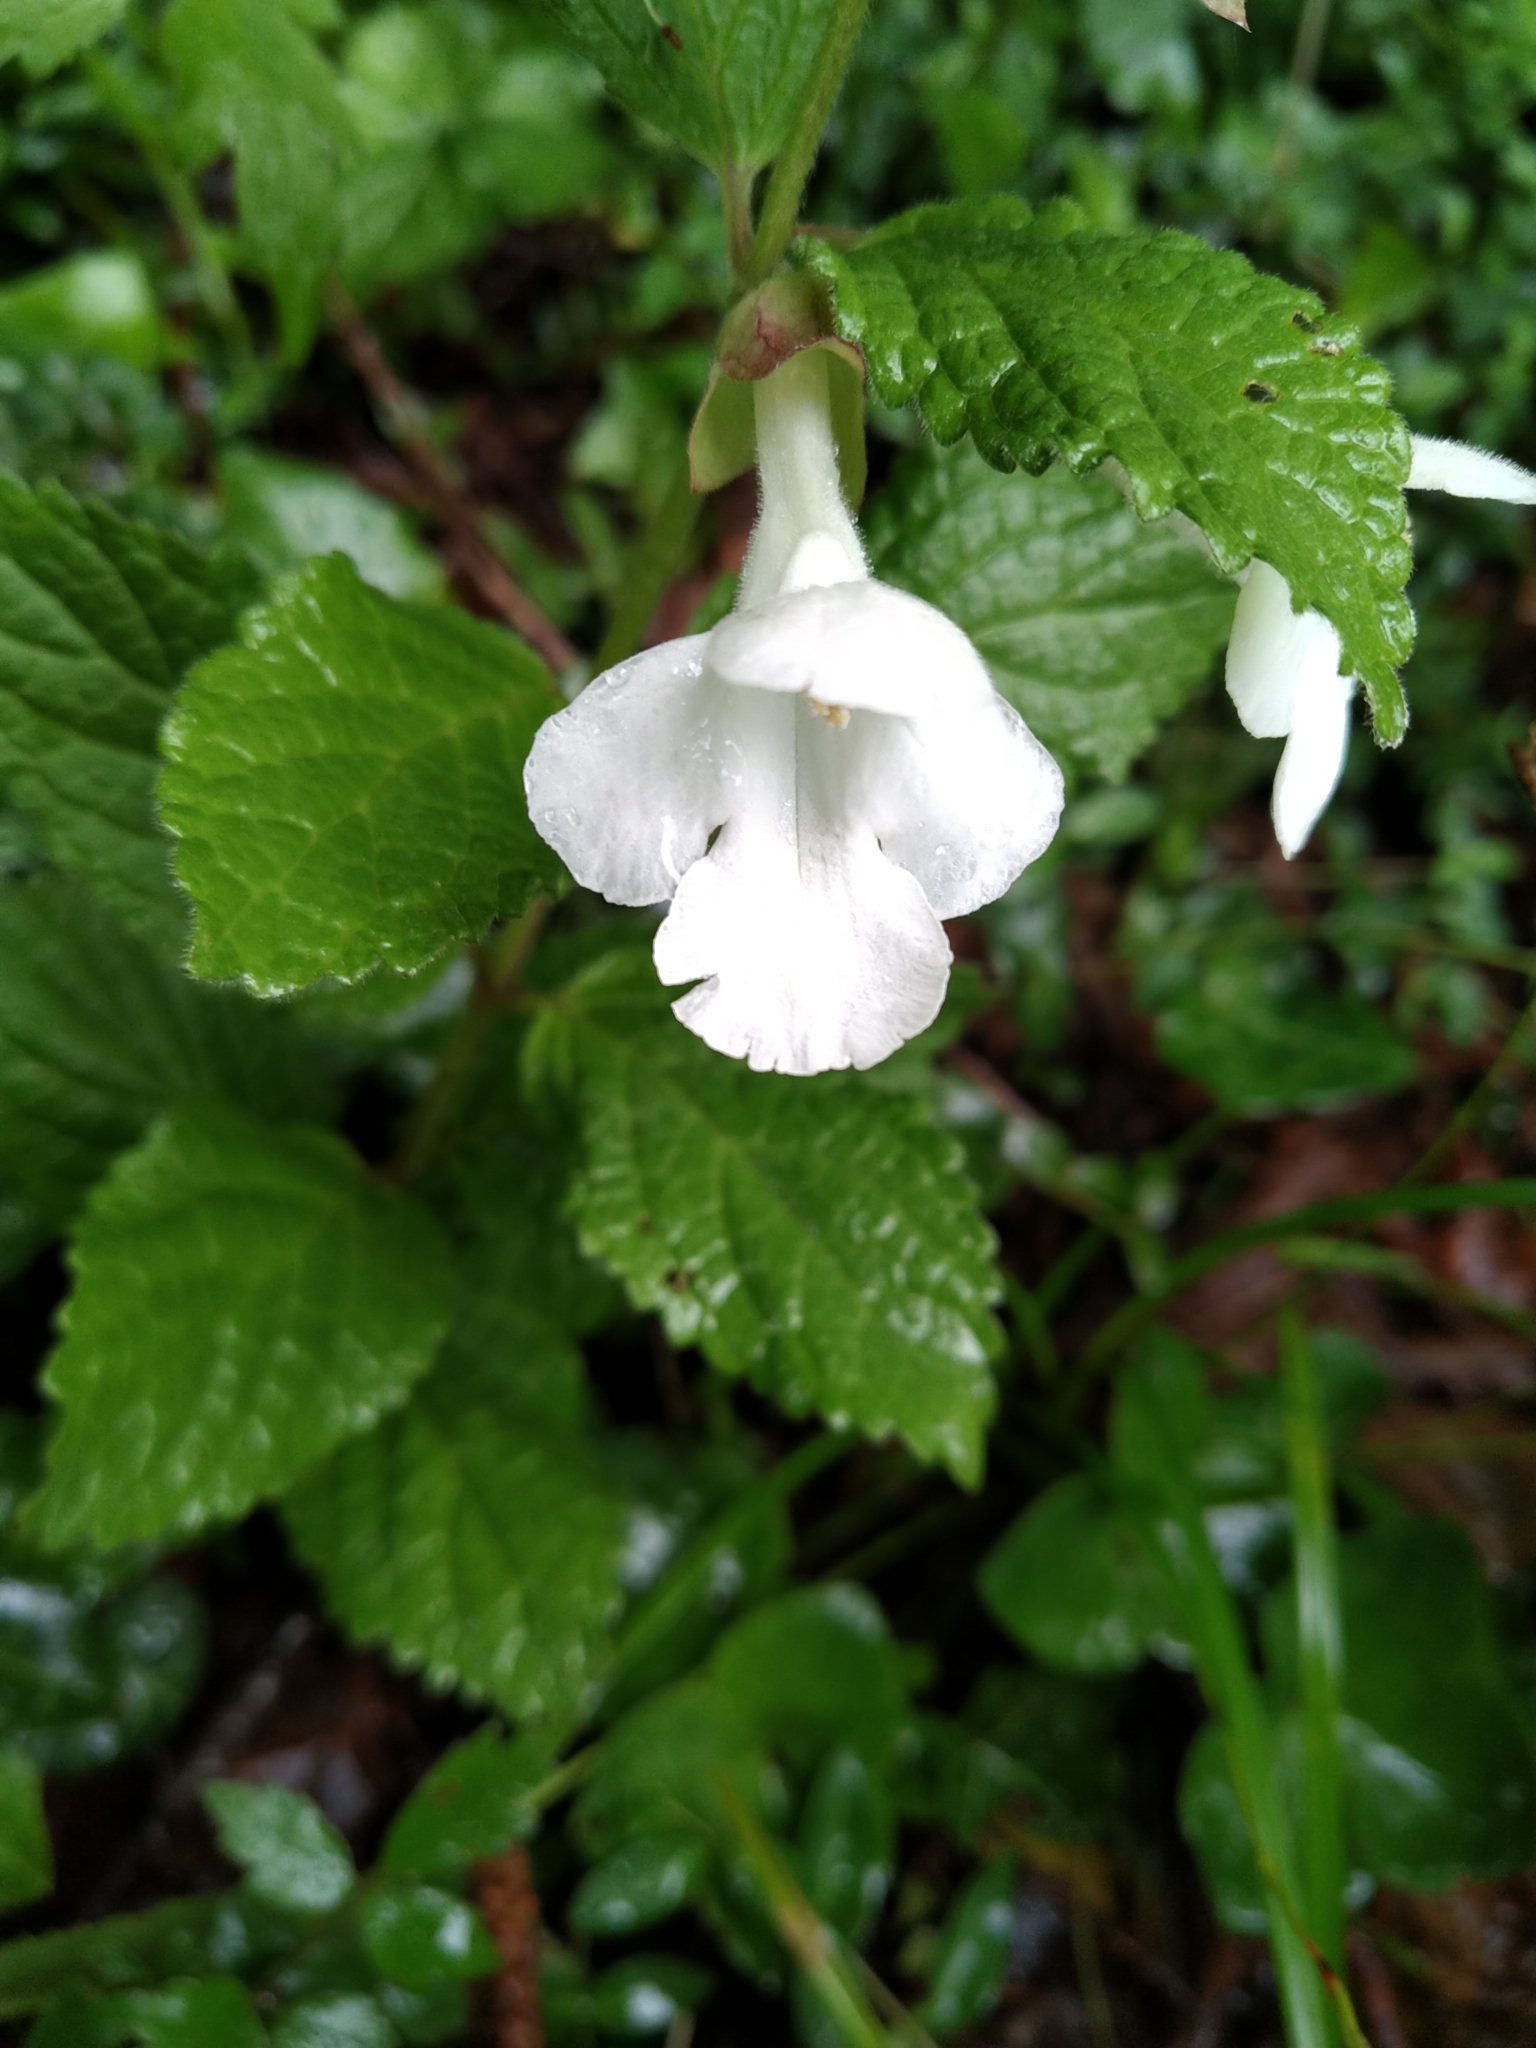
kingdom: Plantae
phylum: Tracheophyta
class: Magnoliopsida
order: Lamiales
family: Lamiaceae
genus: Melittis
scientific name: Melittis melissophyllum
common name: Bastard balm
